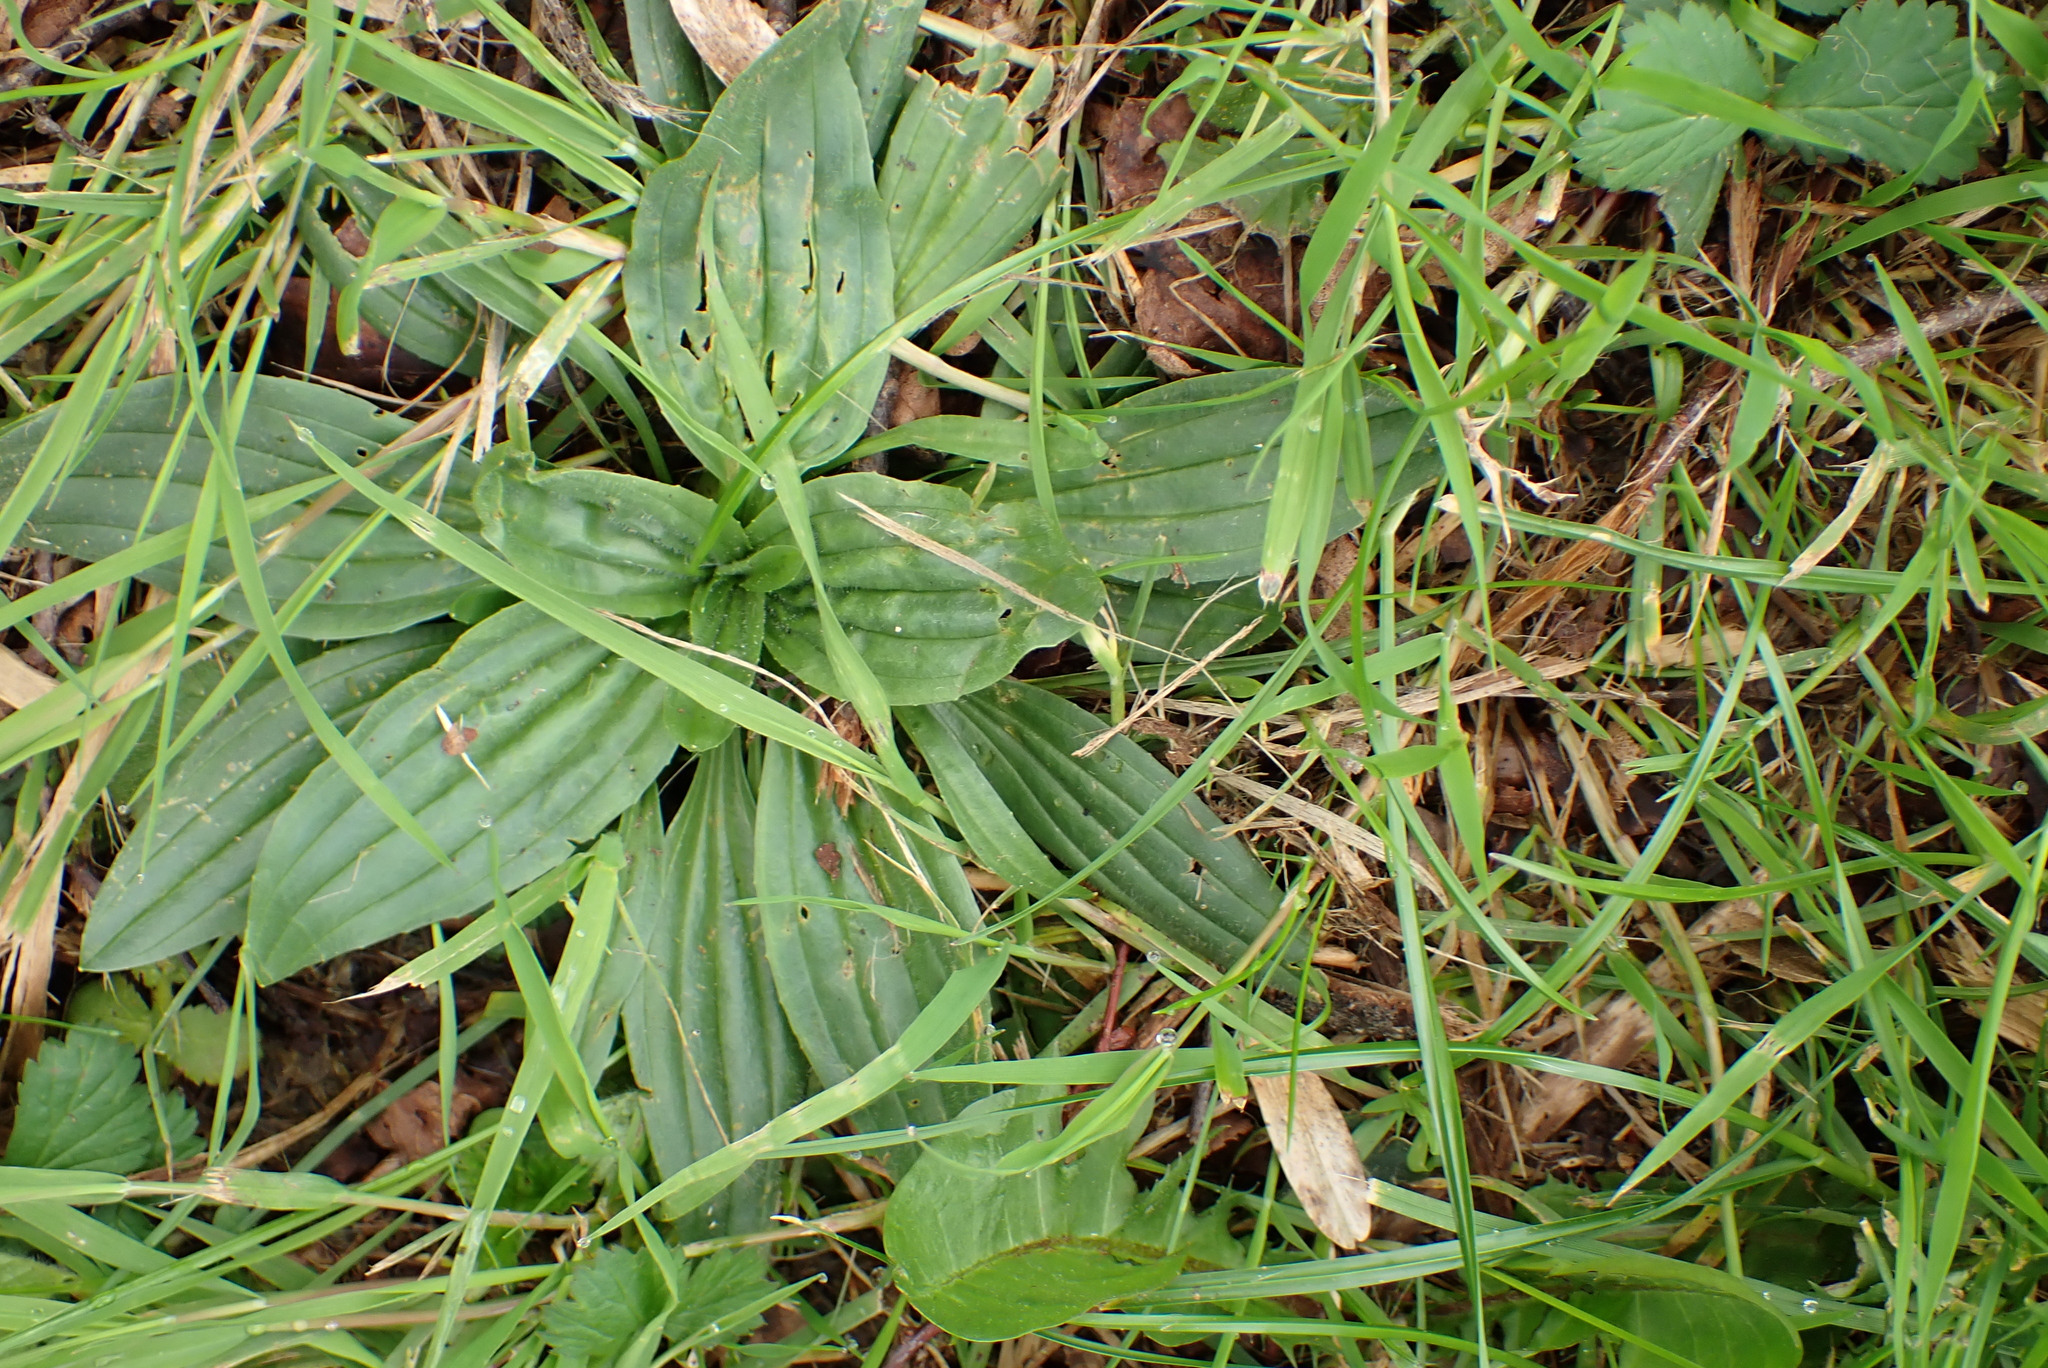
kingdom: Plantae
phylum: Tracheophyta
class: Magnoliopsida
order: Lamiales
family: Plantaginaceae
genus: Plantago
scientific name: Plantago lanceolata
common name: Ribwort plantain
